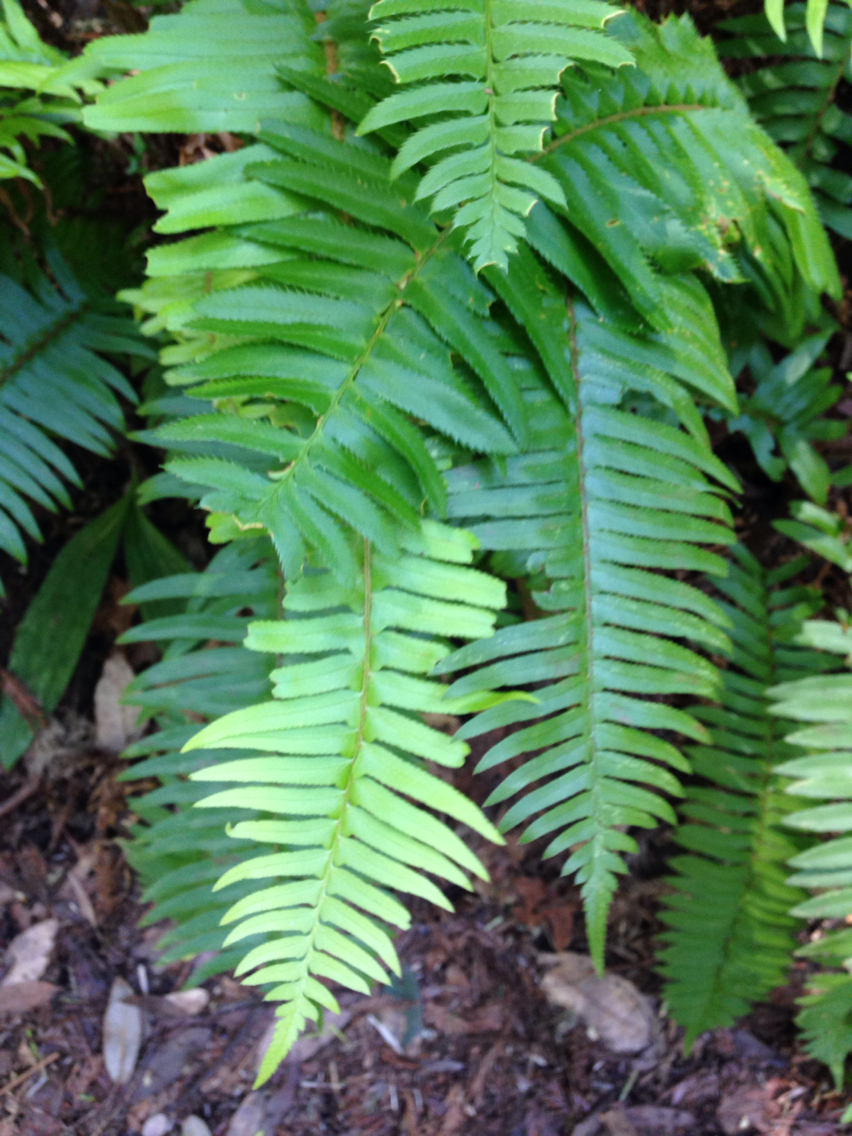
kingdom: Plantae
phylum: Tracheophyta
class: Polypodiopsida
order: Polypodiales
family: Dryopteridaceae
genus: Polystichum
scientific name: Polystichum munitum
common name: Western sword-fern
